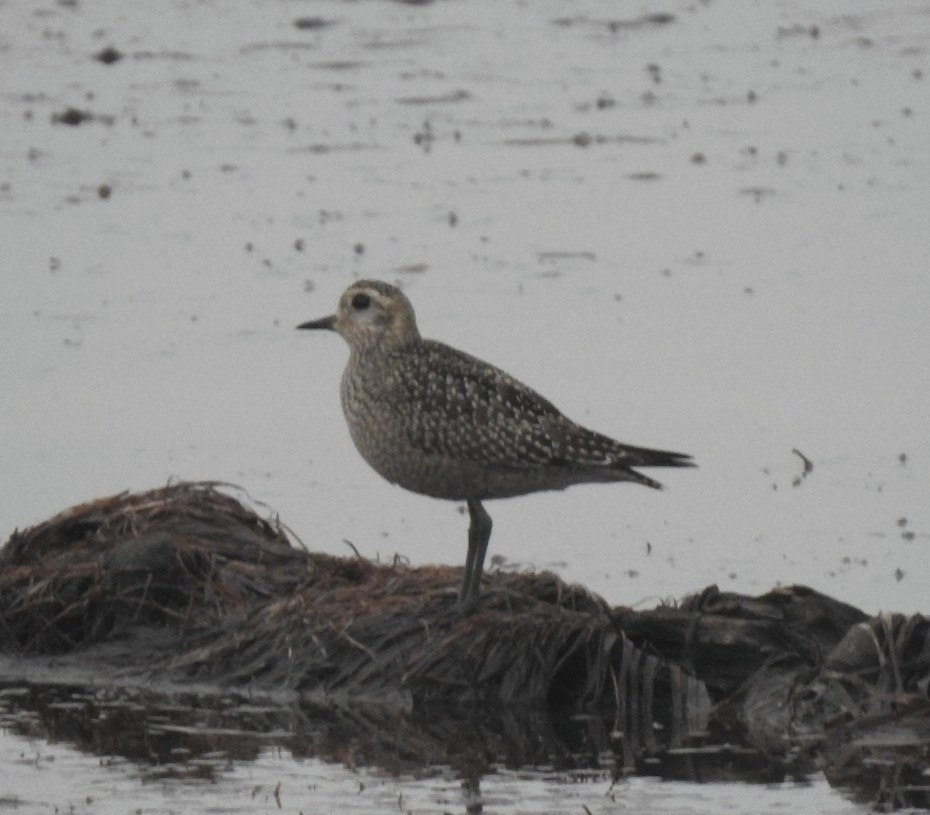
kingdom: Animalia
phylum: Chordata
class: Aves
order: Charadriiformes
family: Charadriidae
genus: Pluvialis
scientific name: Pluvialis dominica
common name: American golden plover
